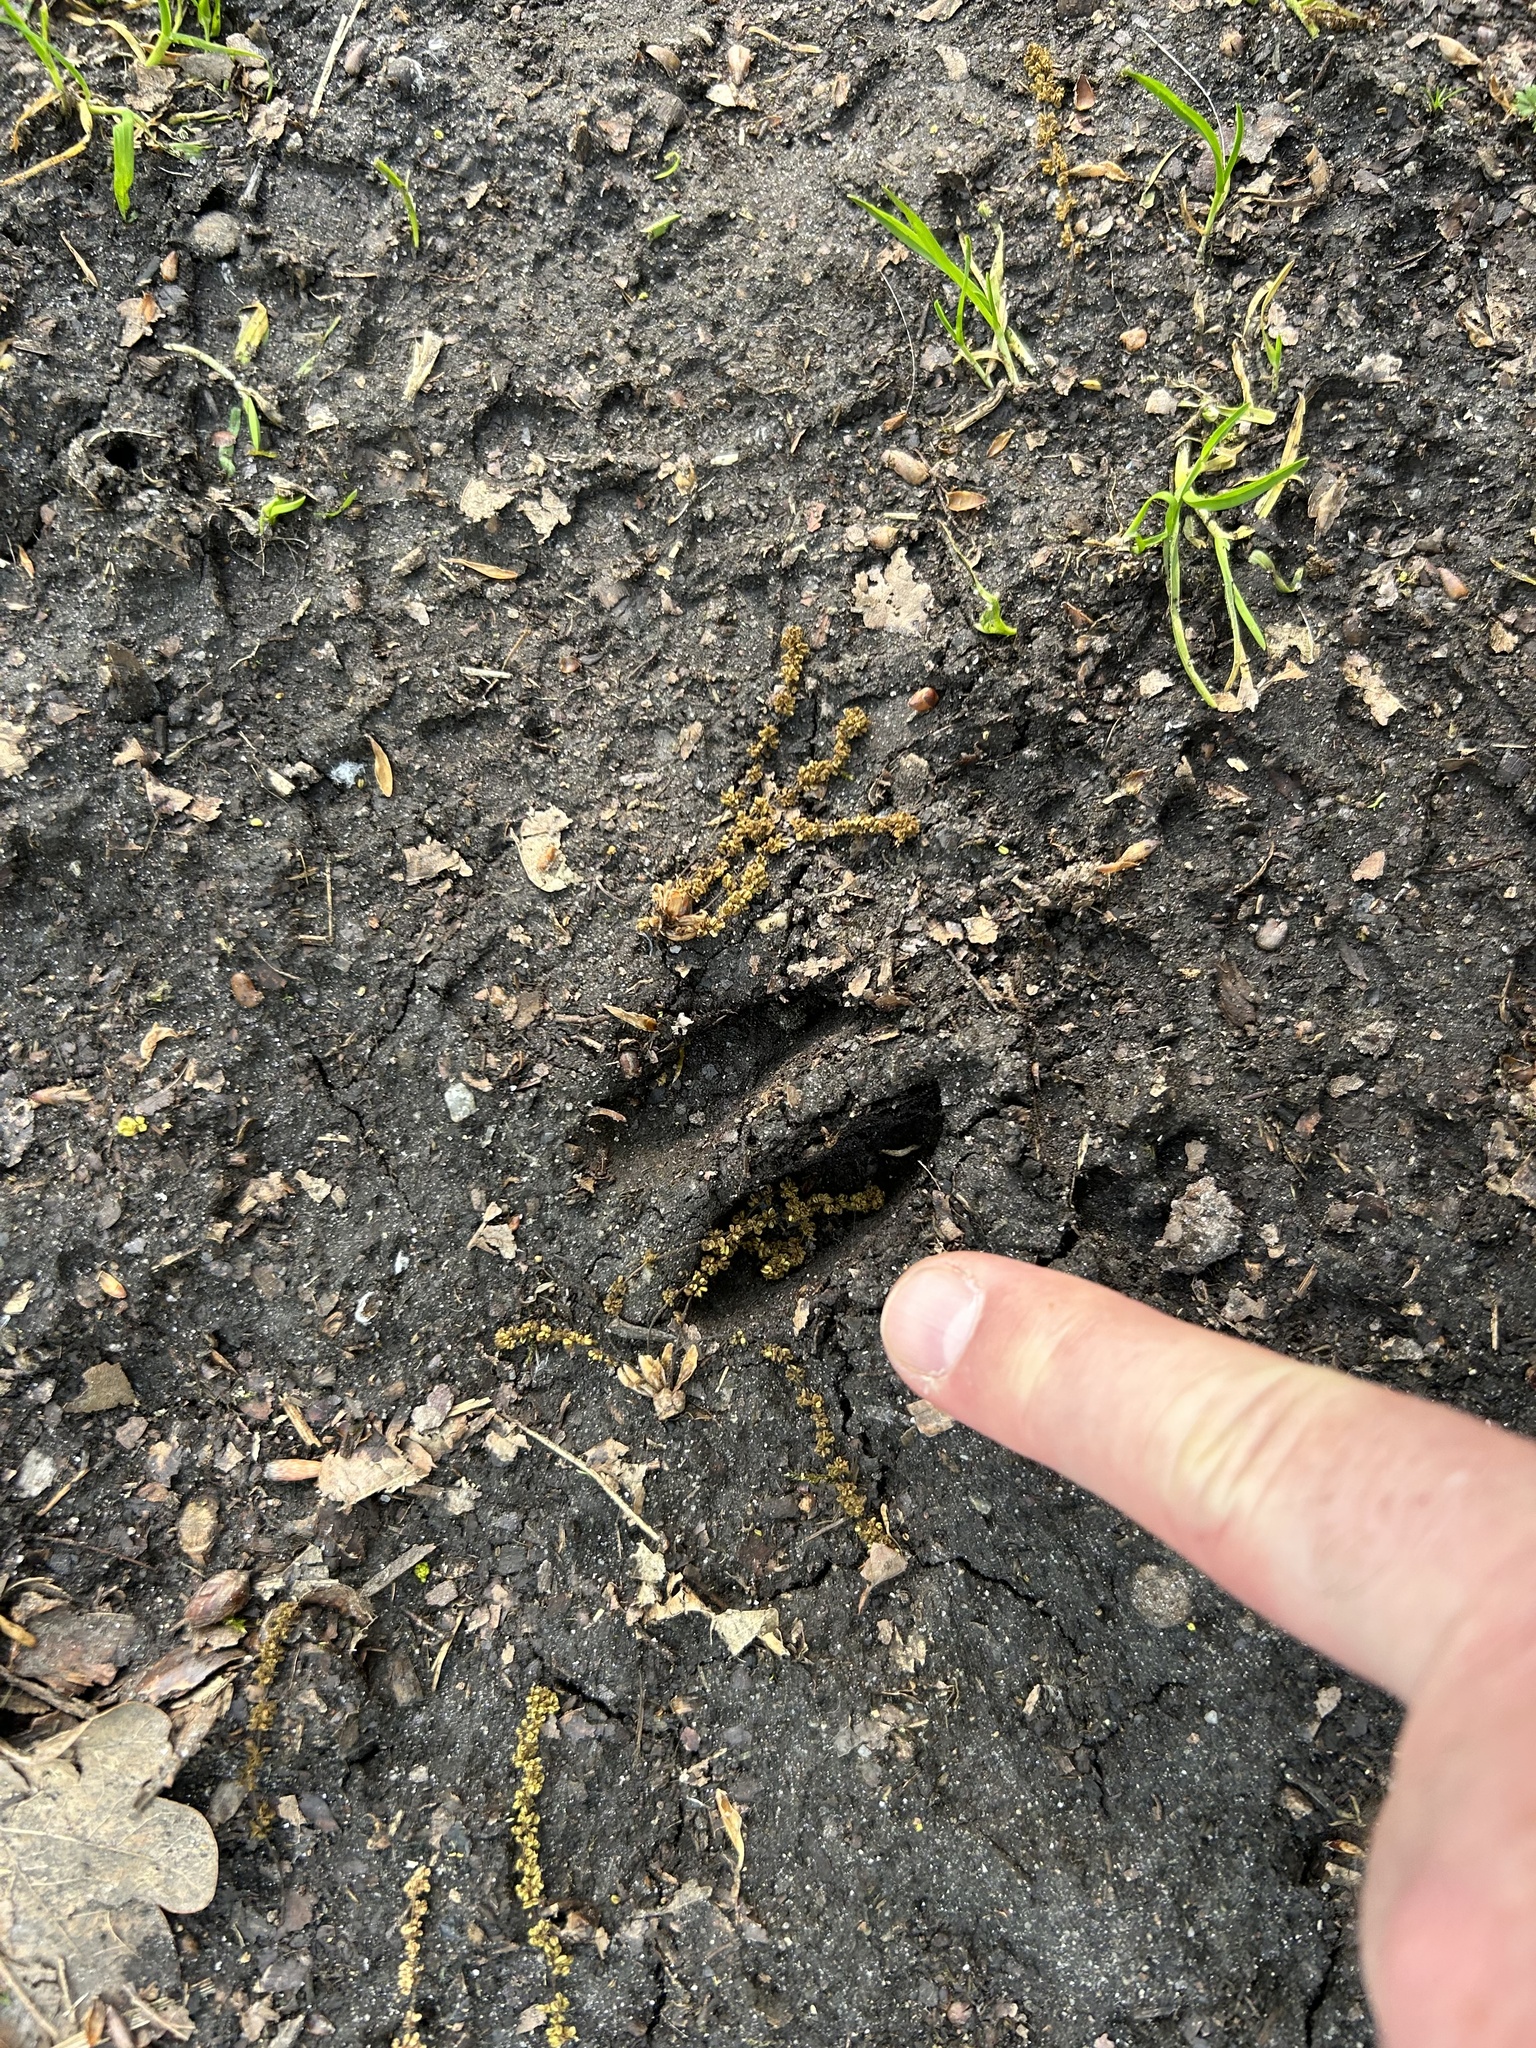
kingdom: Animalia
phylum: Chordata
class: Mammalia
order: Artiodactyla
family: Cervidae
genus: Capreolus
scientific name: Capreolus capreolus
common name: Western roe deer
